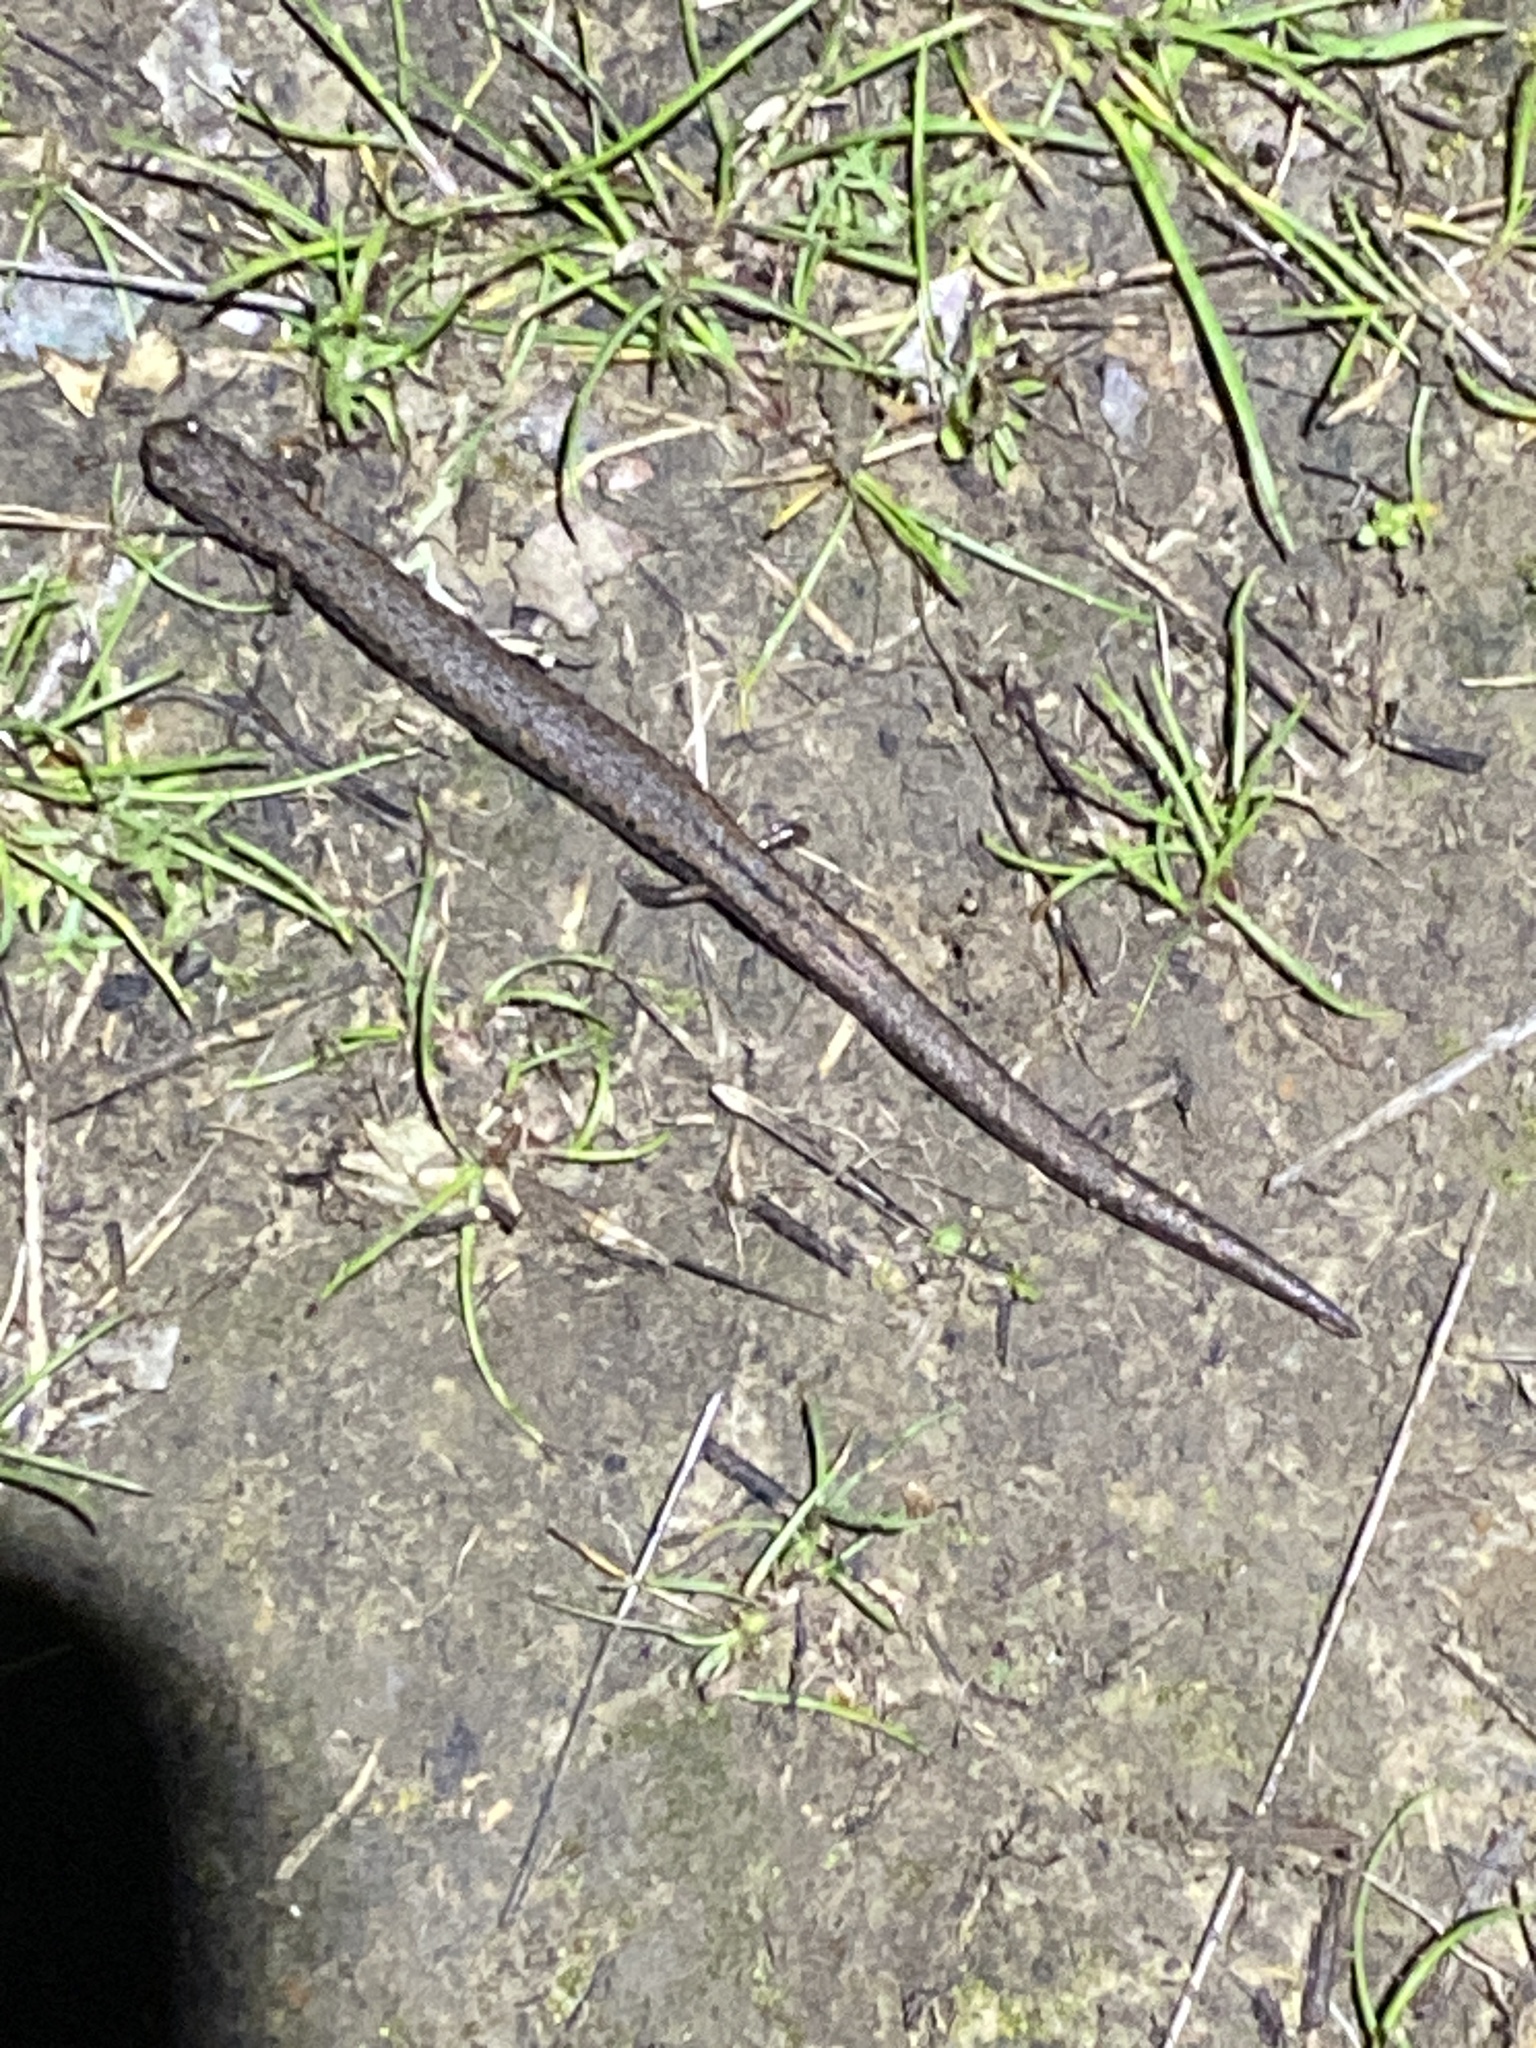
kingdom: Animalia
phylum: Chordata
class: Amphibia
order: Caudata
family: Plethodontidae
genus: Batrachoseps
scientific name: Batrachoseps attenuatus
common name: California slender salamander
